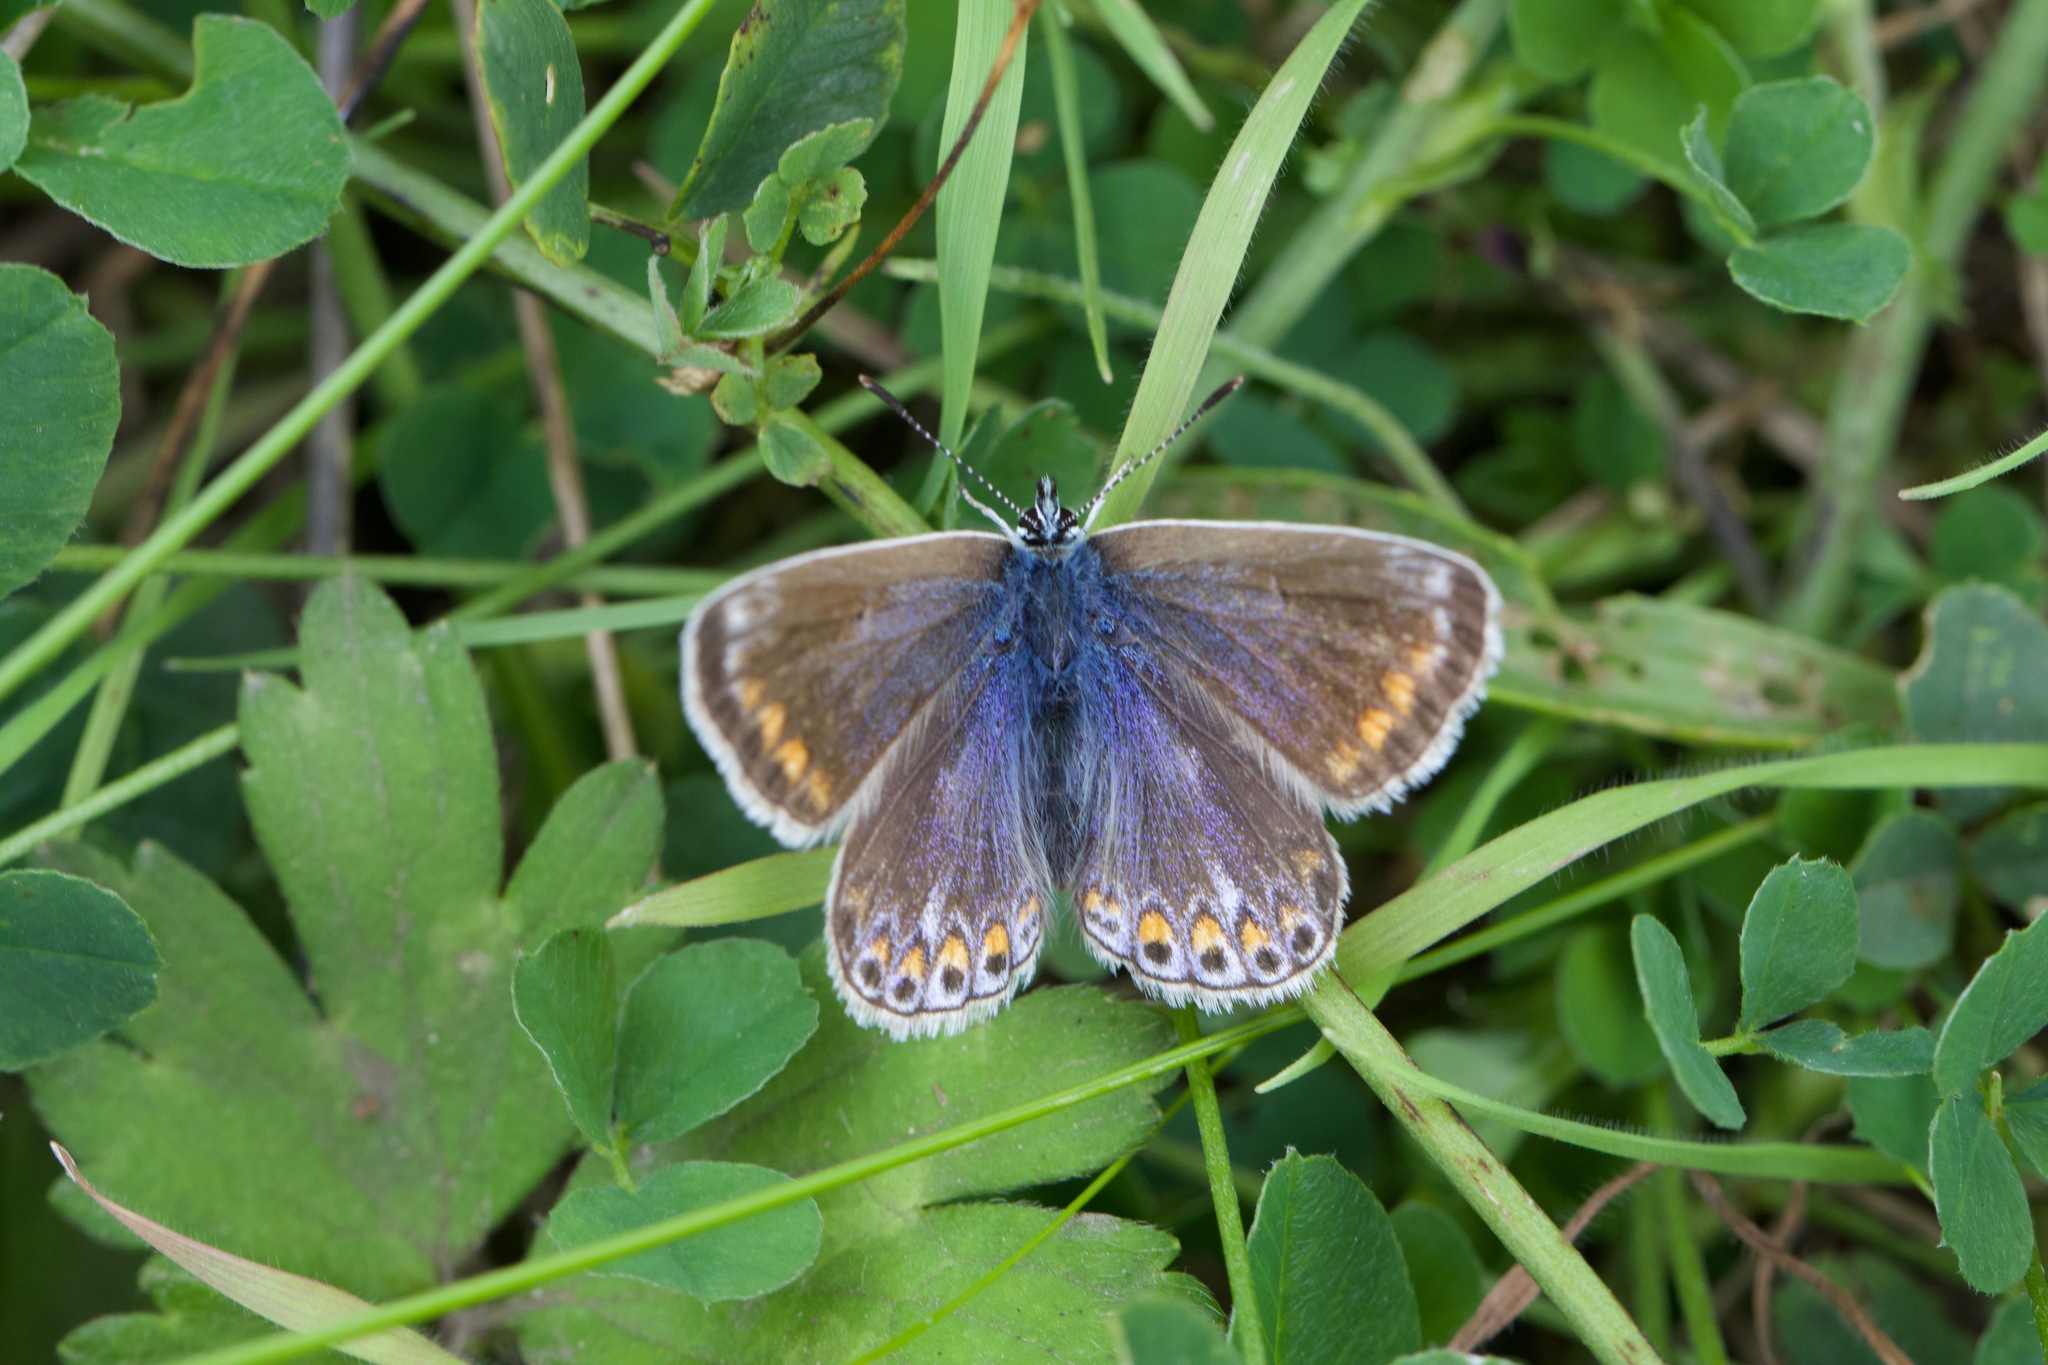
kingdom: Animalia
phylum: Arthropoda
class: Insecta
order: Lepidoptera
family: Lycaenidae
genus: Polyommatus
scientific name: Polyommatus icarus
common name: Common blue
